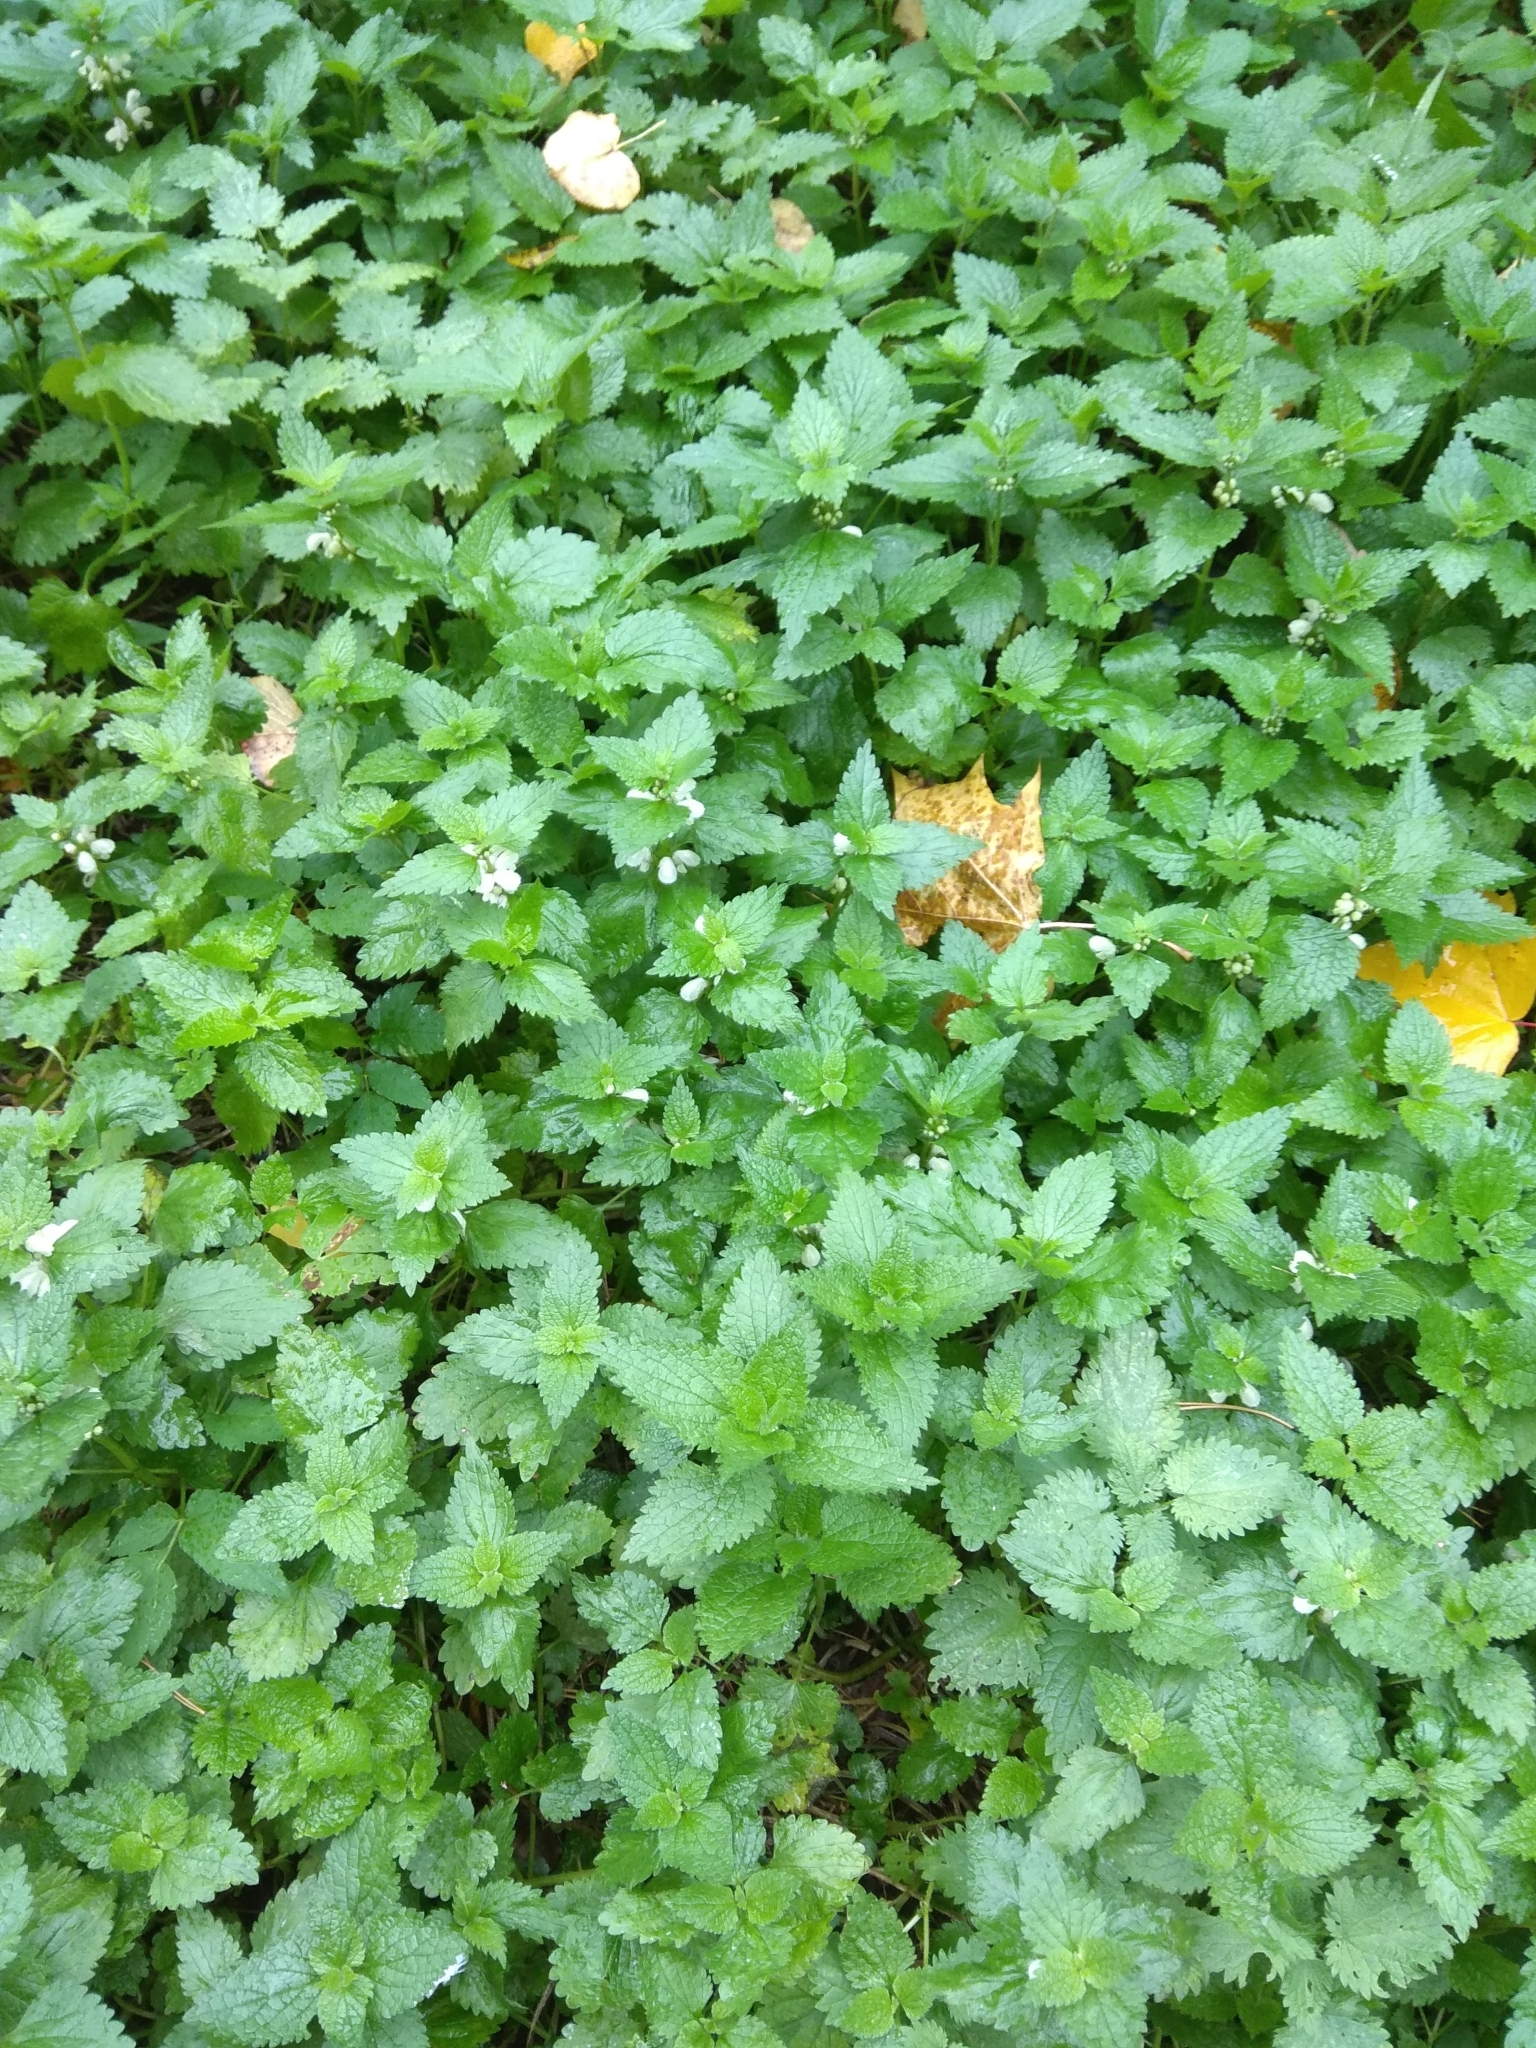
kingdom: Plantae
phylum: Tracheophyta
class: Magnoliopsida
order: Lamiales
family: Lamiaceae
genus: Lamium
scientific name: Lamium album
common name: White dead-nettle
